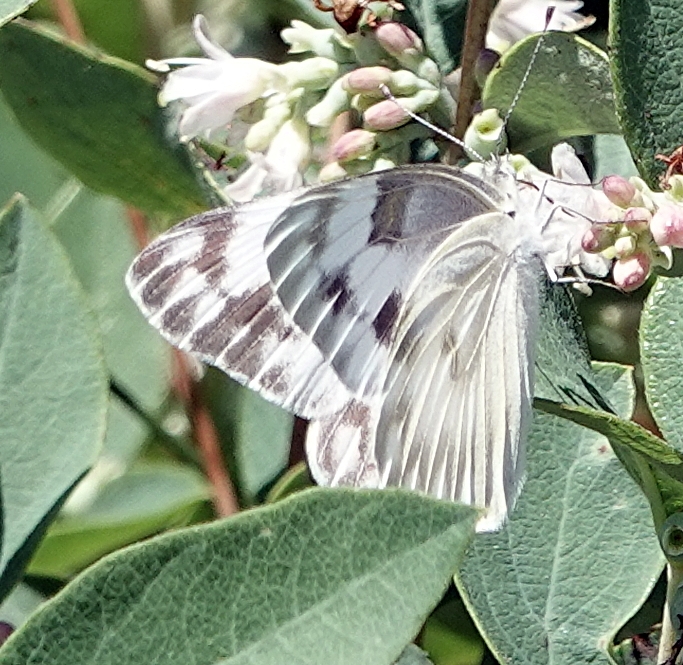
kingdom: Animalia
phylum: Arthropoda
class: Insecta
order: Lepidoptera
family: Pieridae
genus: Pontia
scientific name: Pontia protodice
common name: Checkered white
